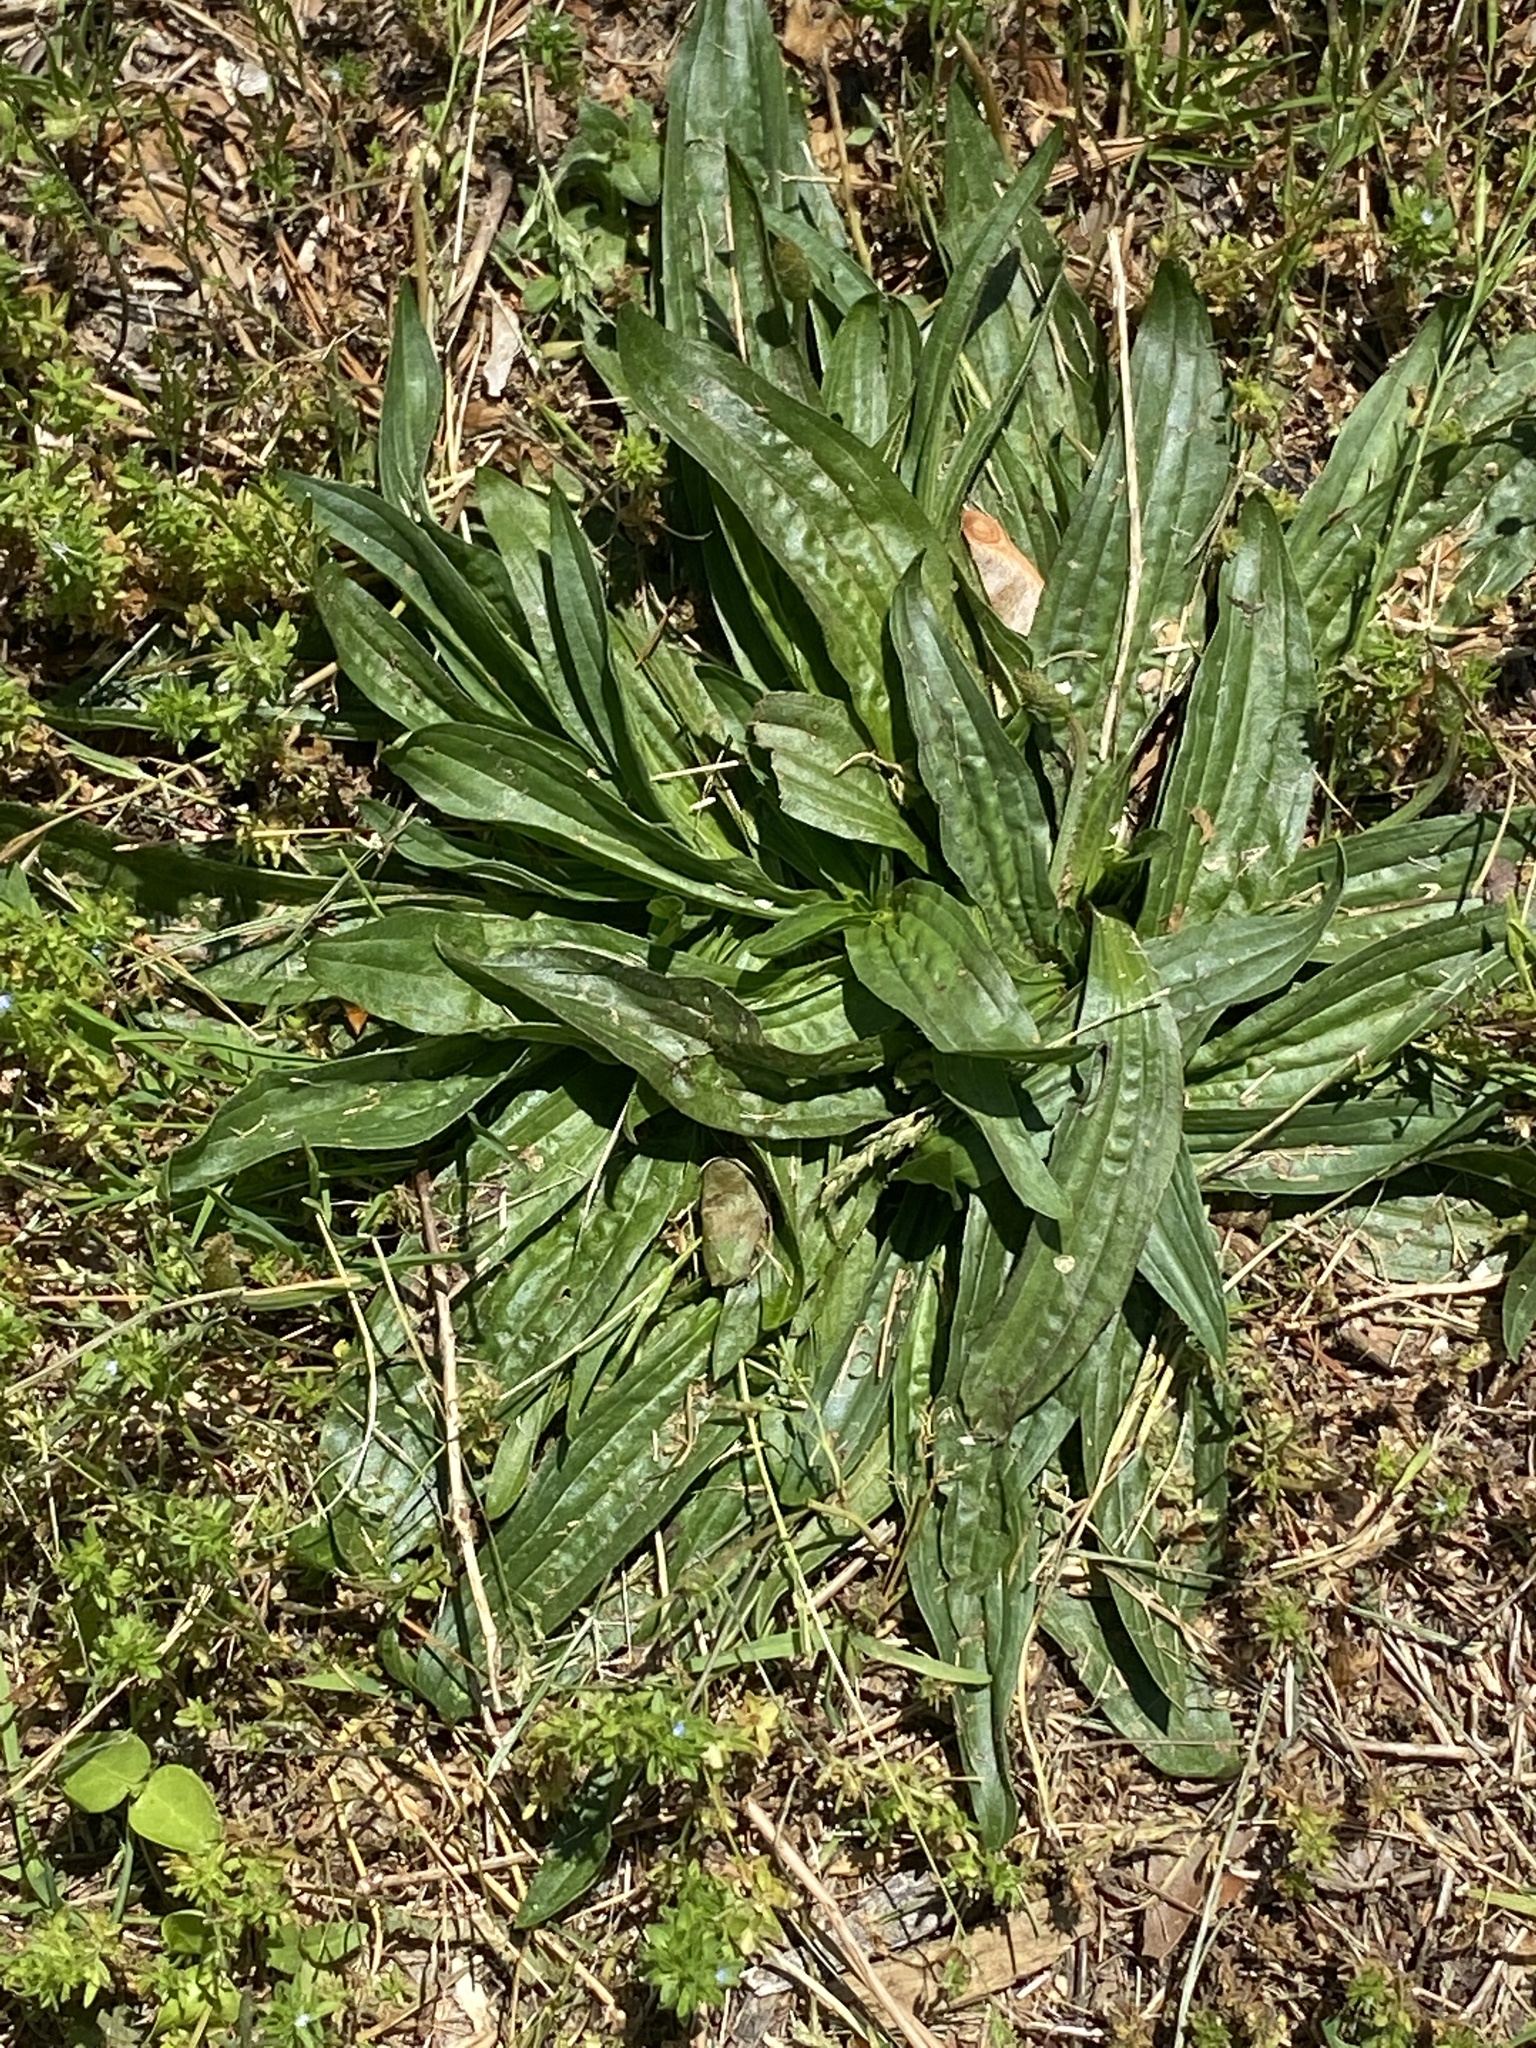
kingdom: Plantae
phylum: Tracheophyta
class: Magnoliopsida
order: Lamiales
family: Plantaginaceae
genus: Plantago
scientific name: Plantago lanceolata
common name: Ribwort plantain
